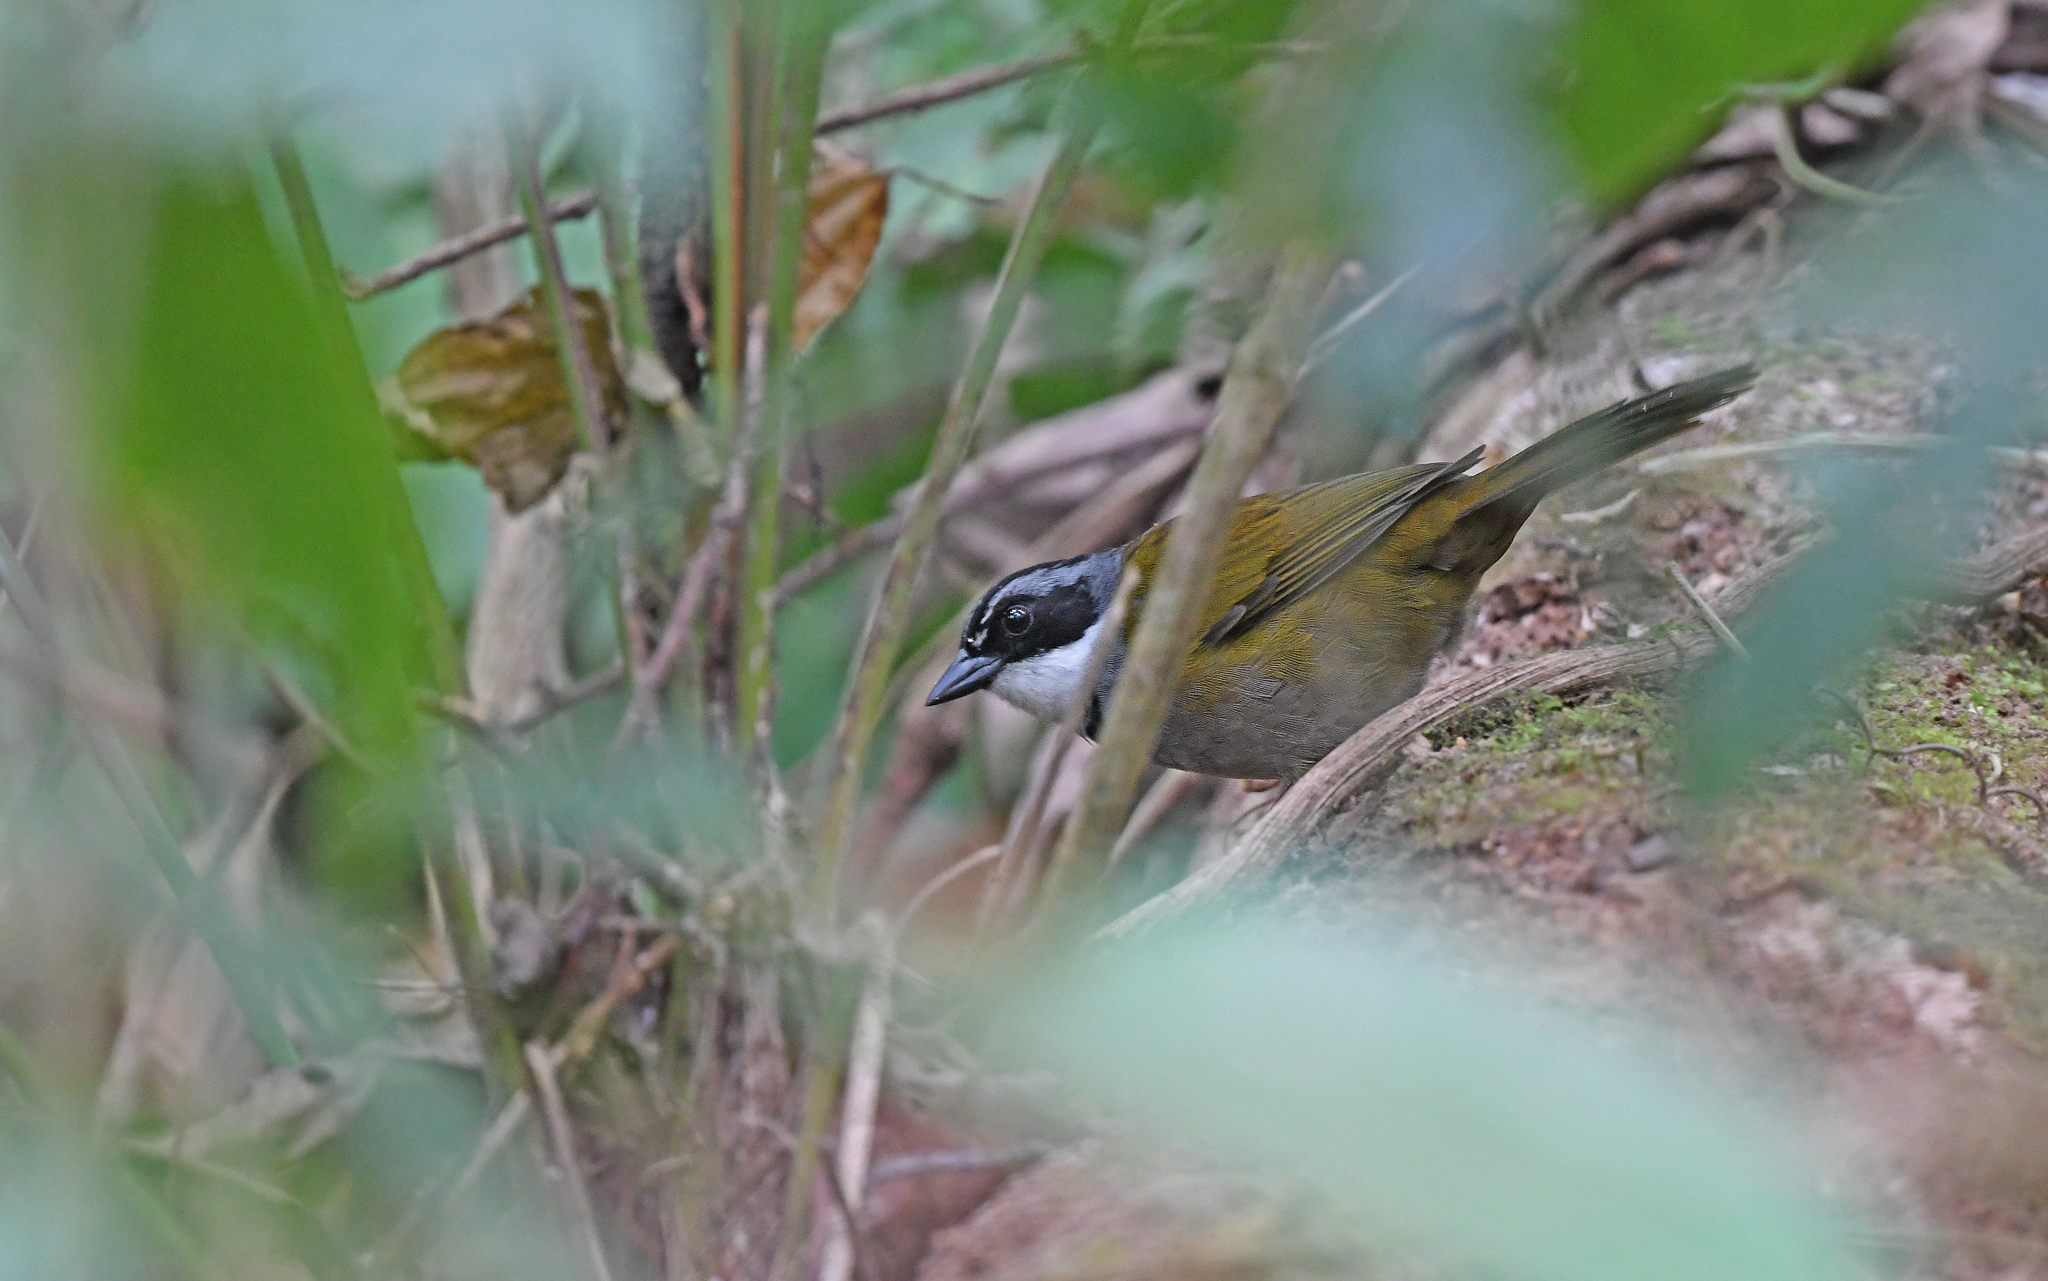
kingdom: Animalia
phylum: Chordata
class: Aves
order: Passeriformes
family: Passerellidae
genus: Arremon
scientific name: Arremon basilicus
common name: Sierra nevada brushfinch
